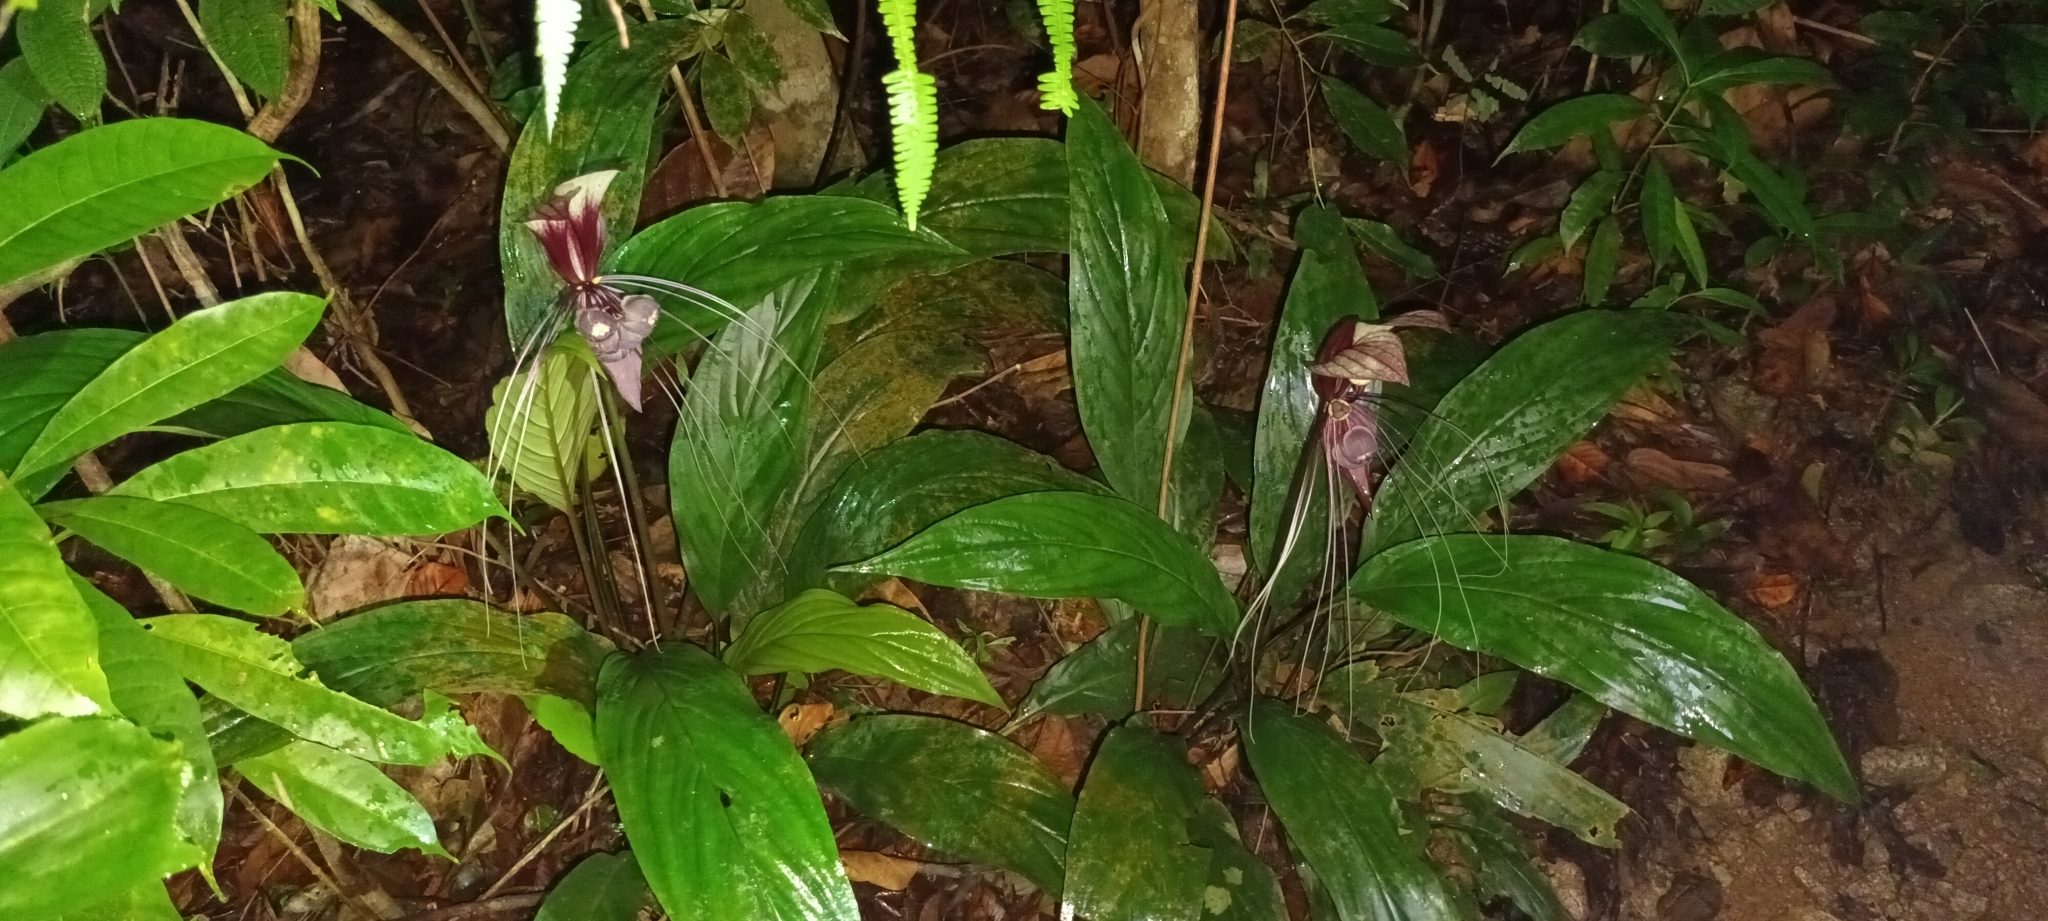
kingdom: Plantae
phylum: Tracheophyta
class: Liliopsida
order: Dioscoreales
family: Dioscoreaceae
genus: Tacca
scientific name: Tacca cristata
